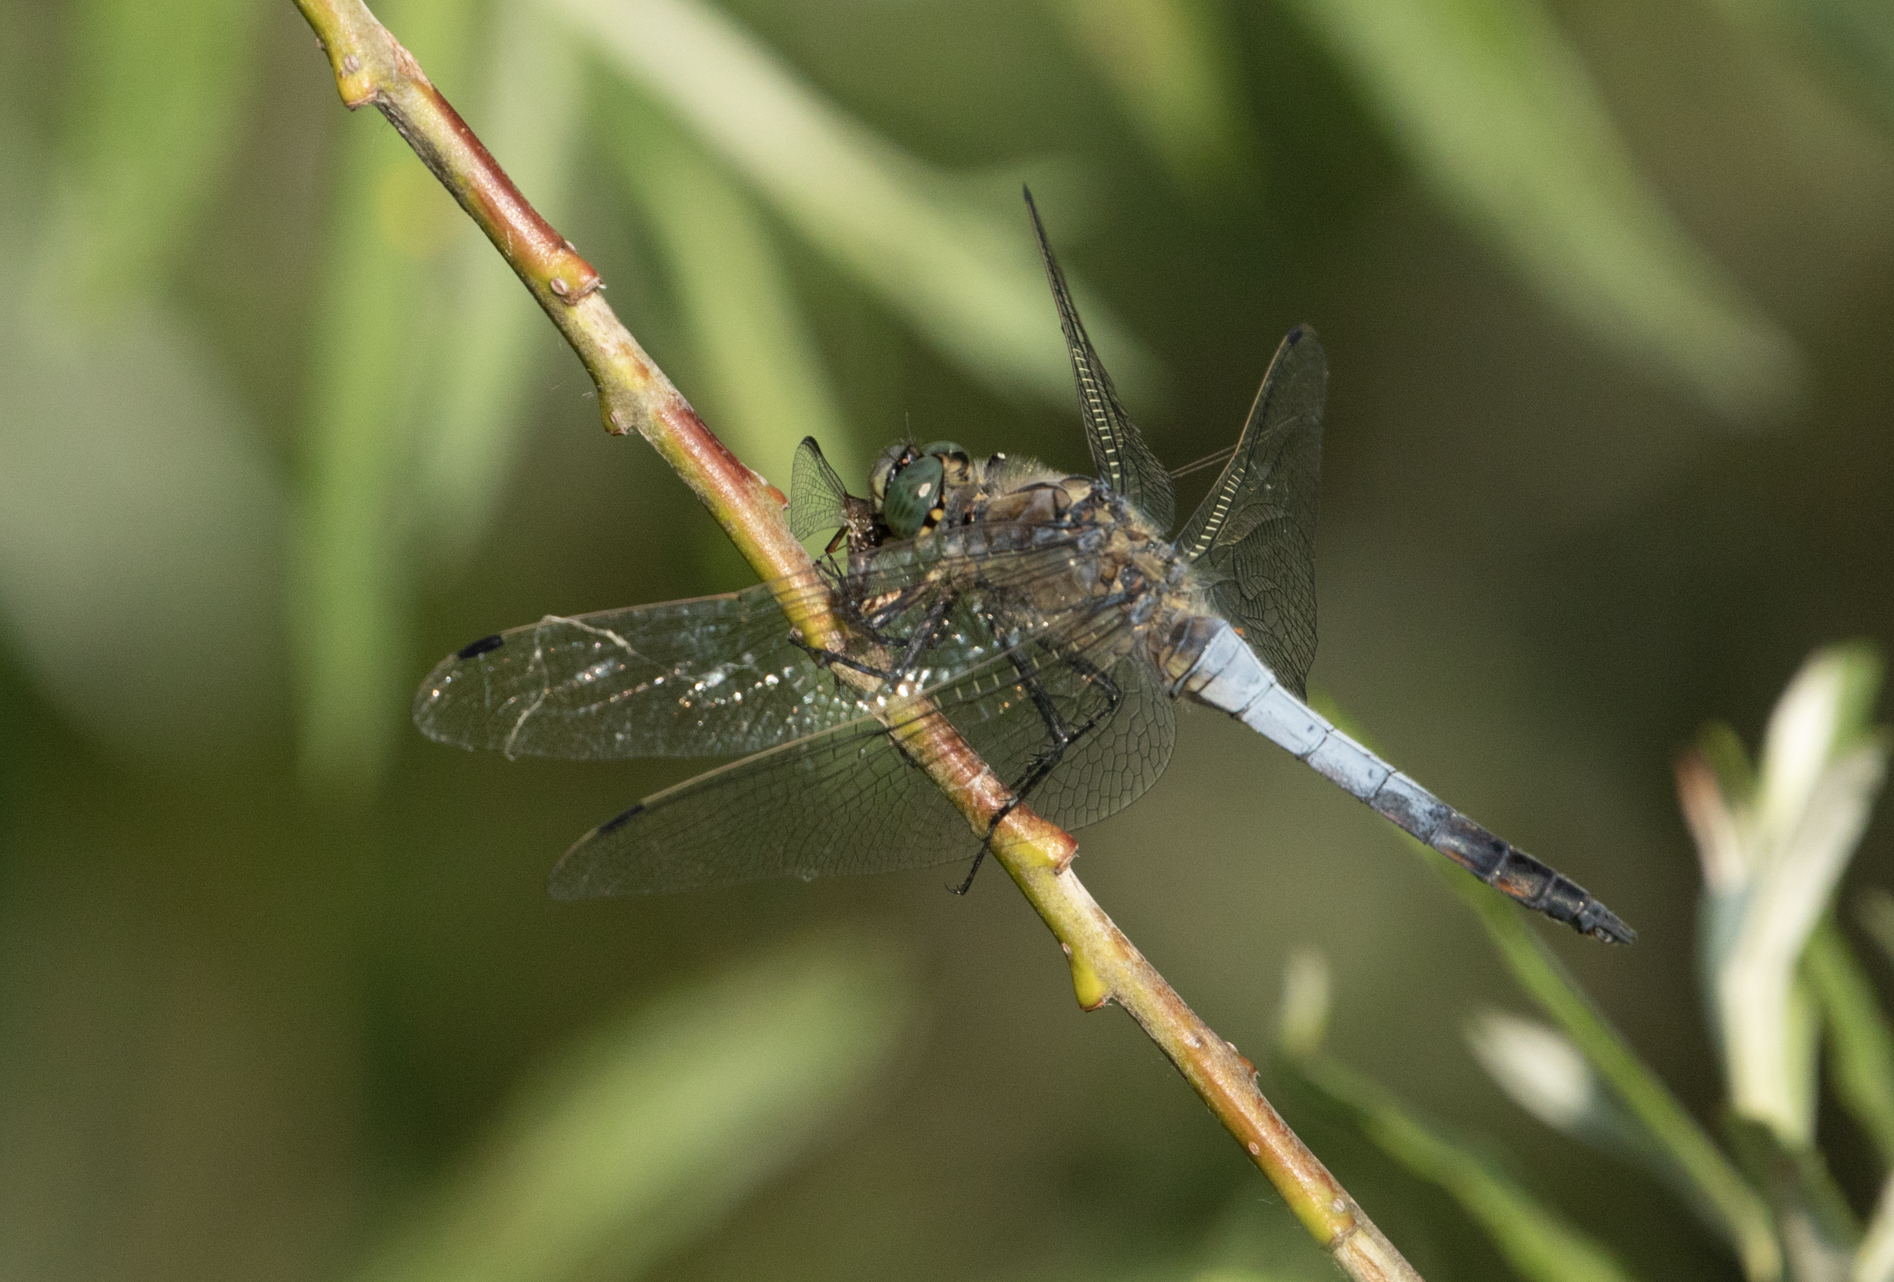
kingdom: Animalia
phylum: Arthropoda
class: Insecta
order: Odonata
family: Libellulidae
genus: Orthetrum
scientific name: Orthetrum cancellatum
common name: Black-tailed skimmer
